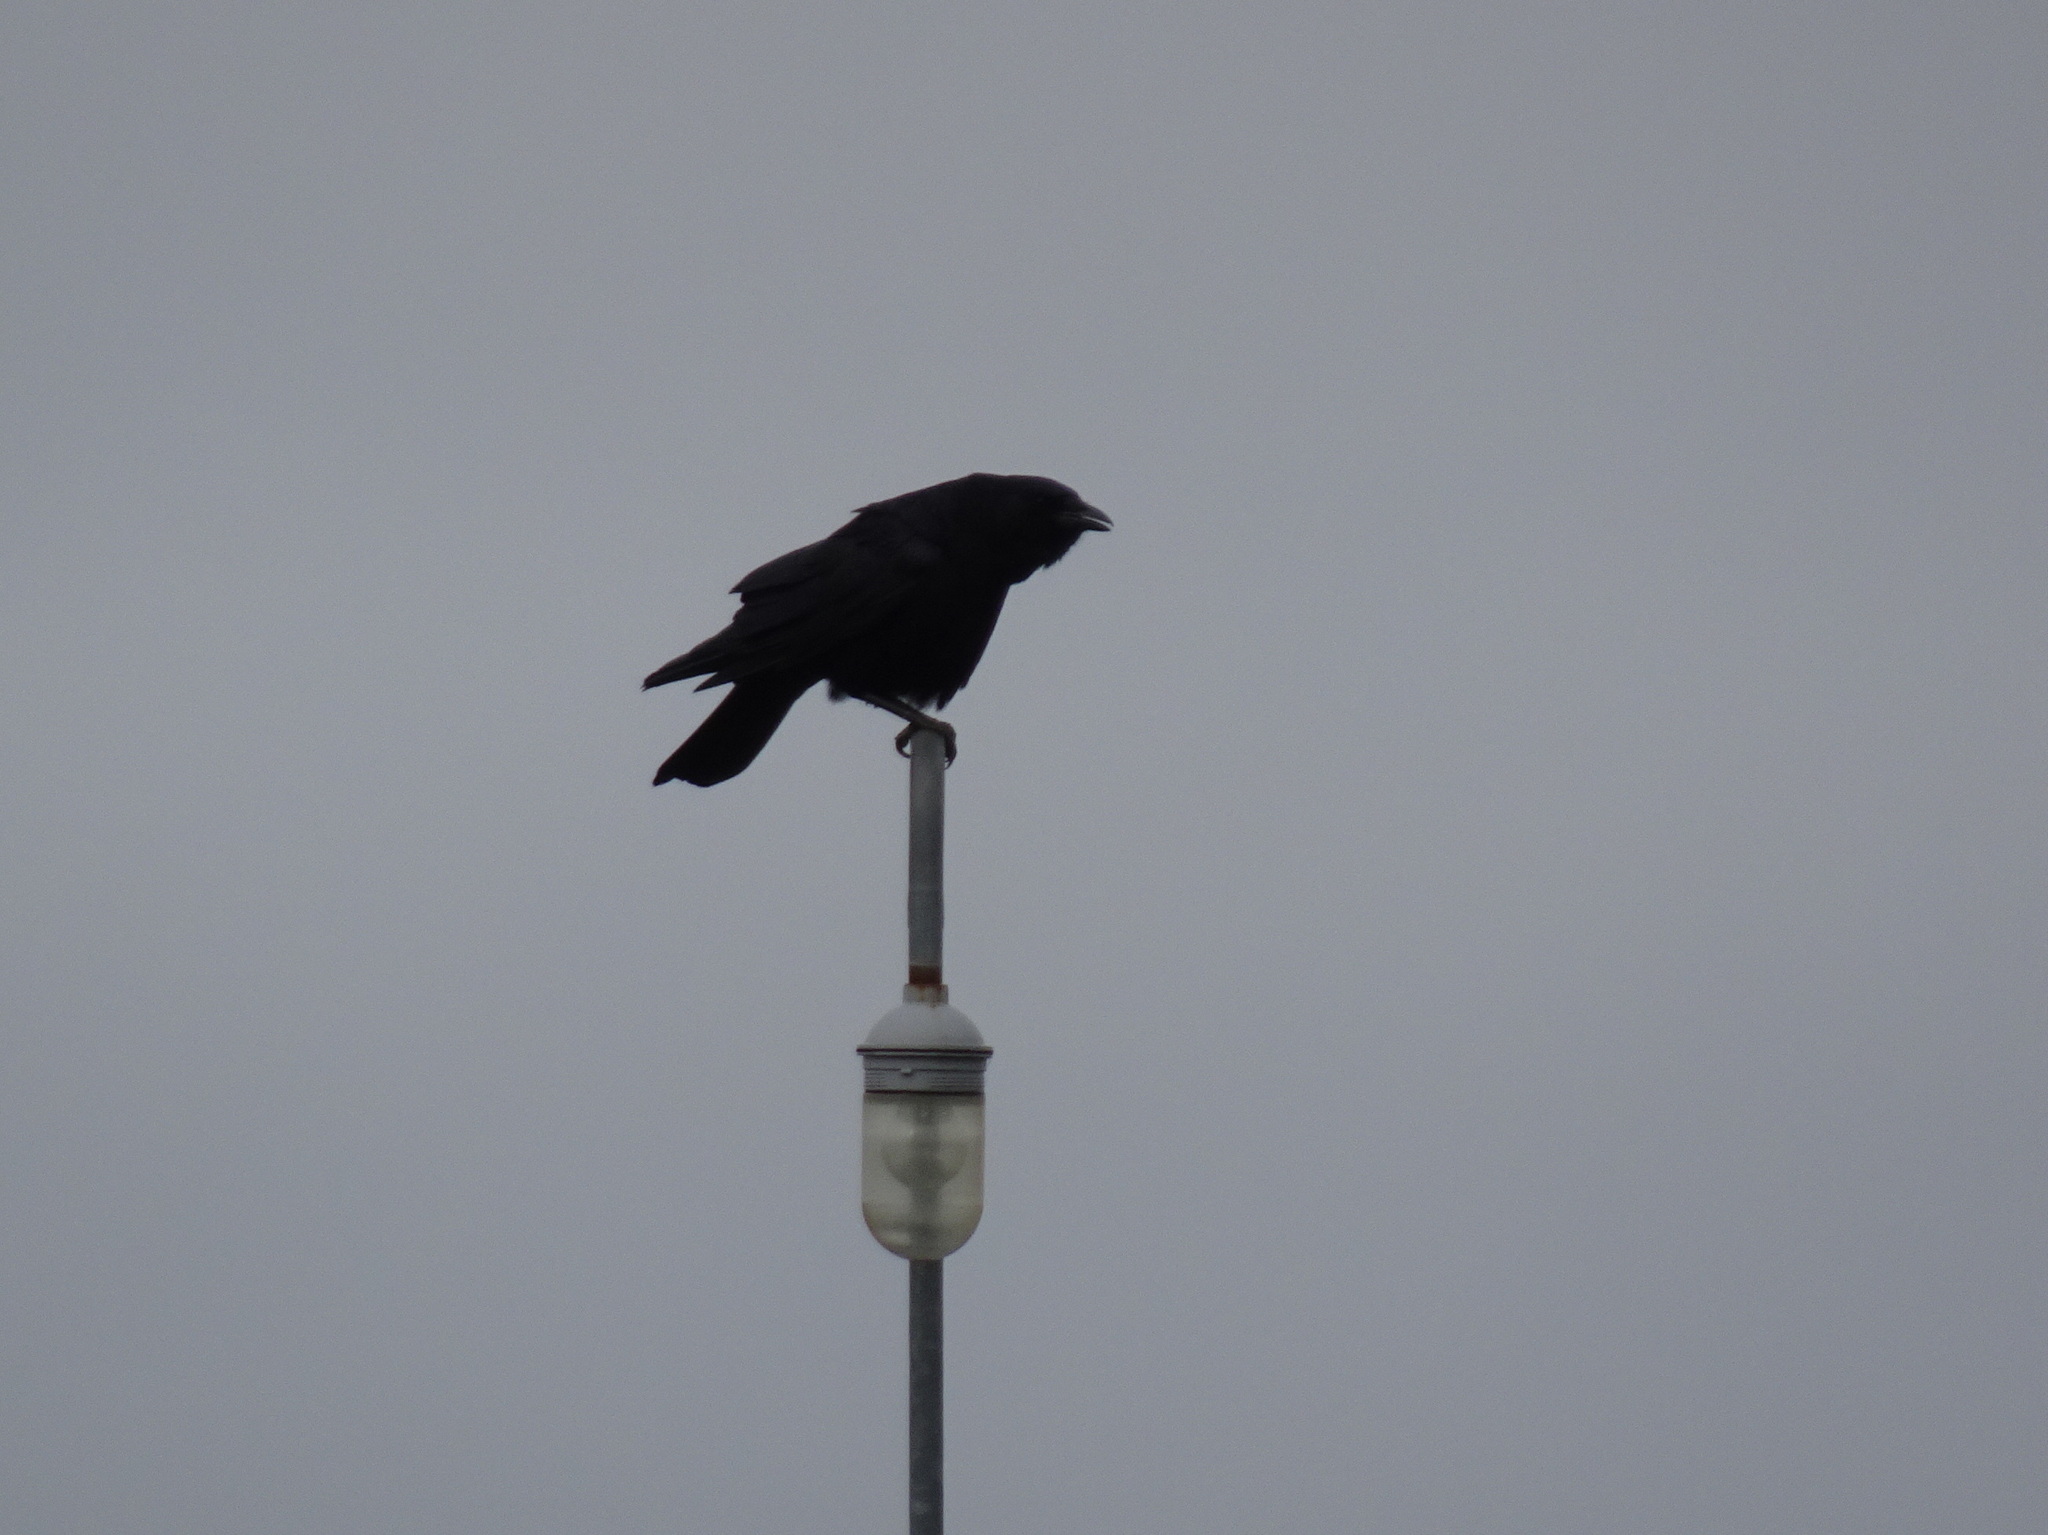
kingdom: Animalia
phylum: Chordata
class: Aves
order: Passeriformes
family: Corvidae
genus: Corvus
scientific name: Corvus brachyrhynchos
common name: American crow
